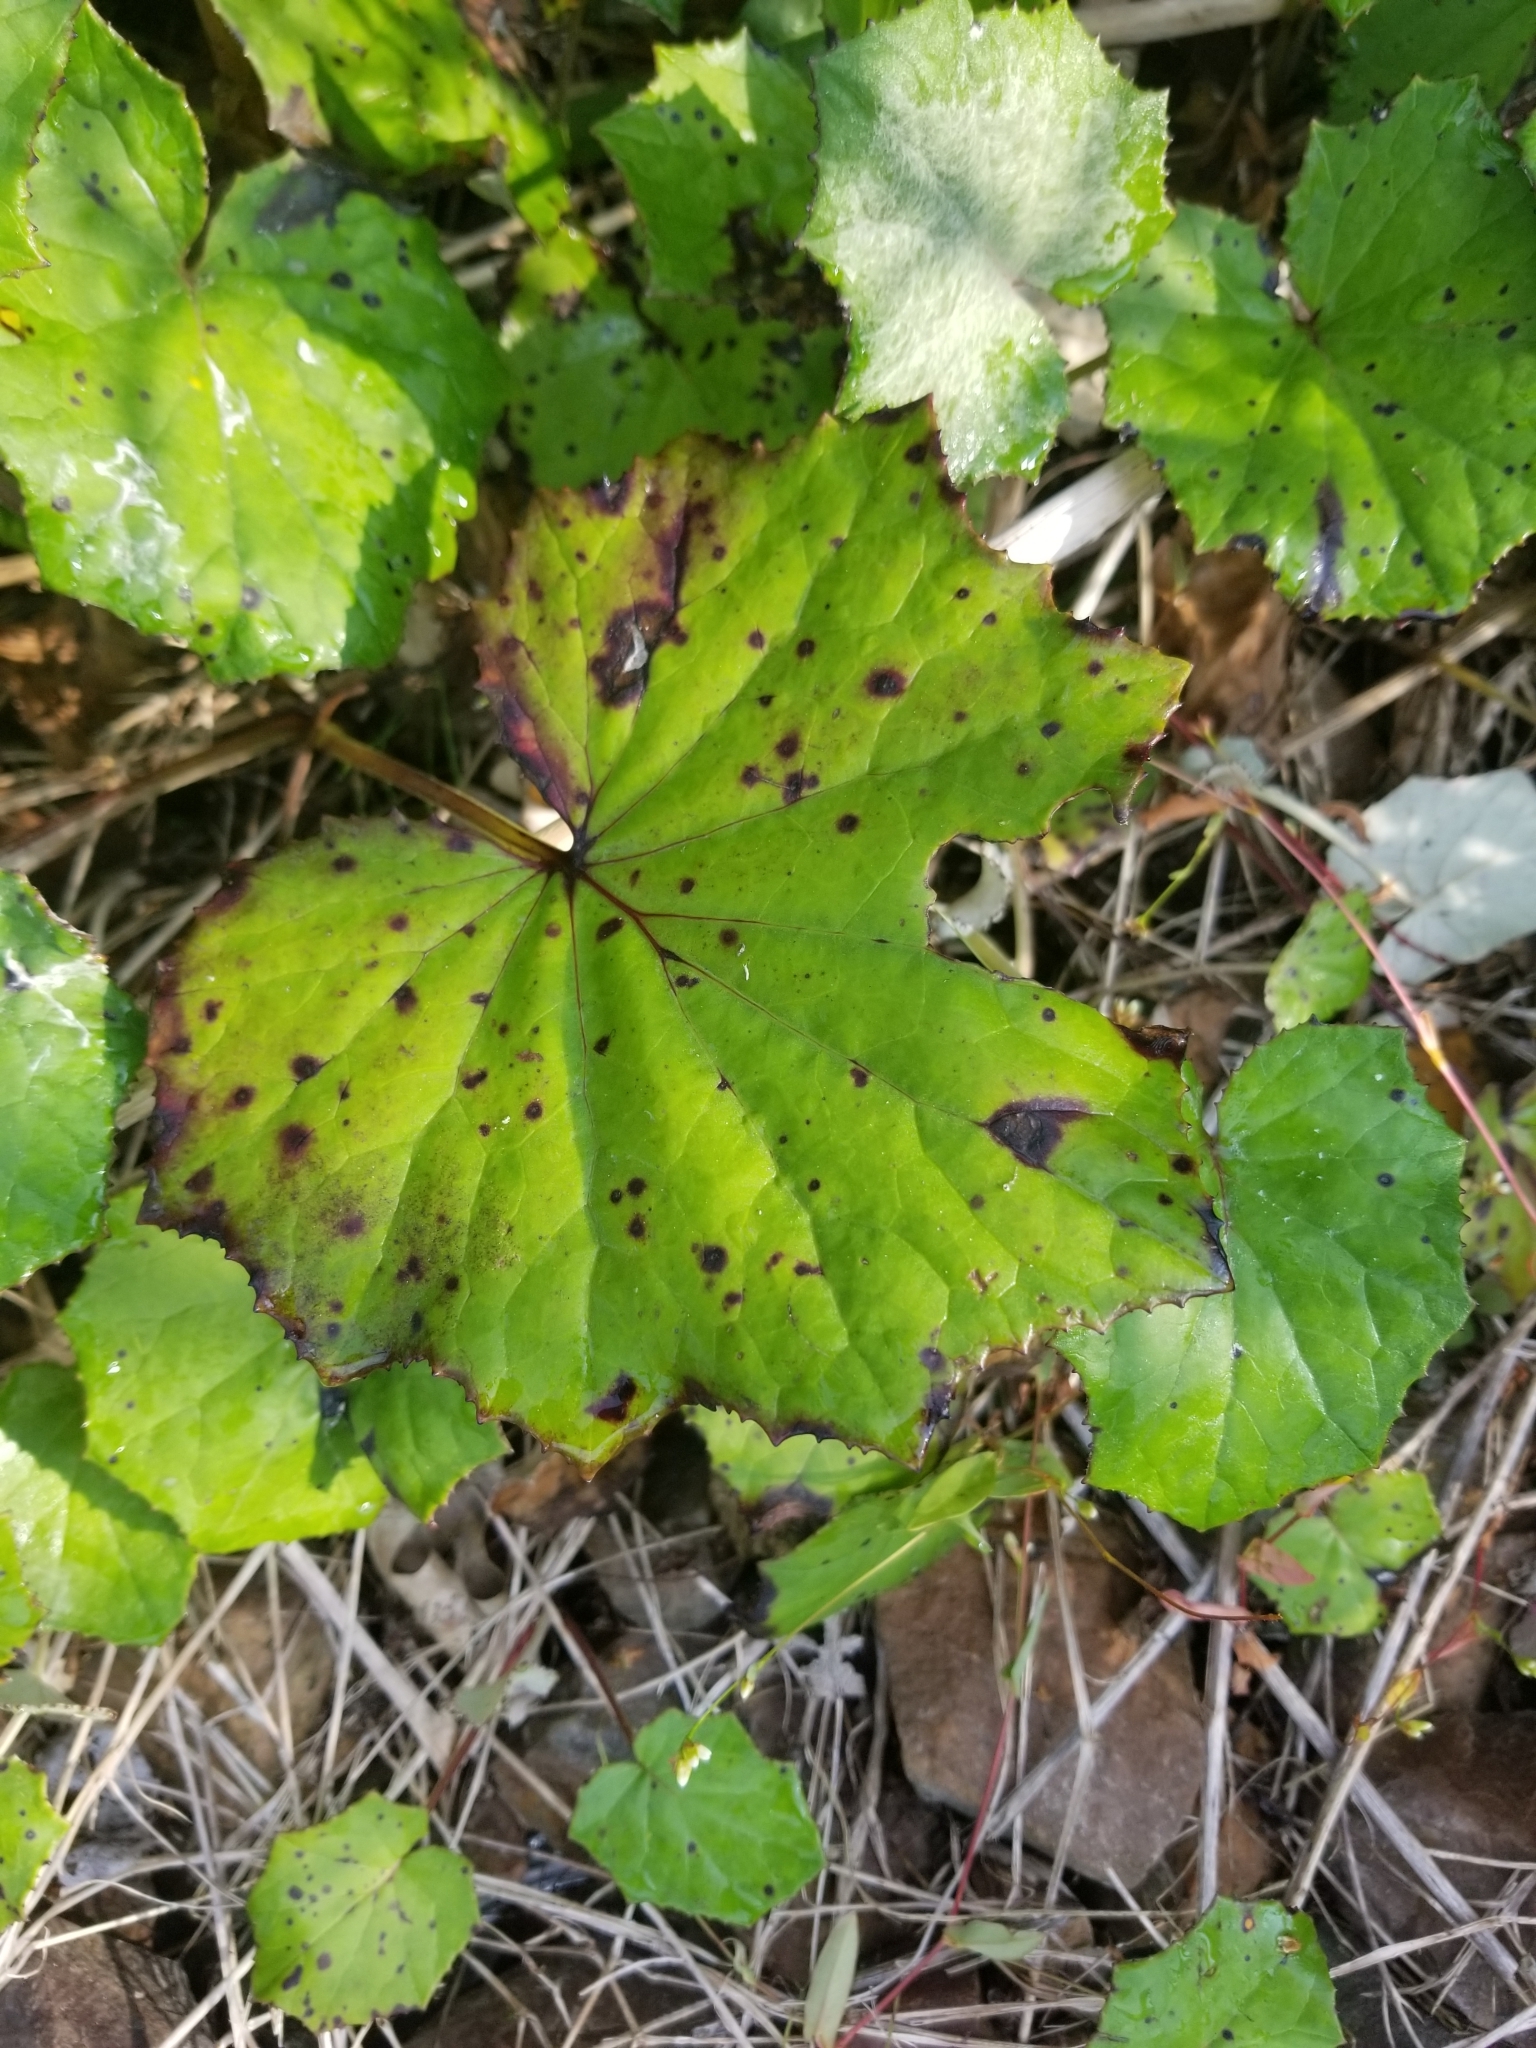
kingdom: Plantae
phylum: Tracheophyta
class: Magnoliopsida
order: Asterales
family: Asteraceae
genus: Tussilago
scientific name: Tussilago farfara
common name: Coltsfoot
